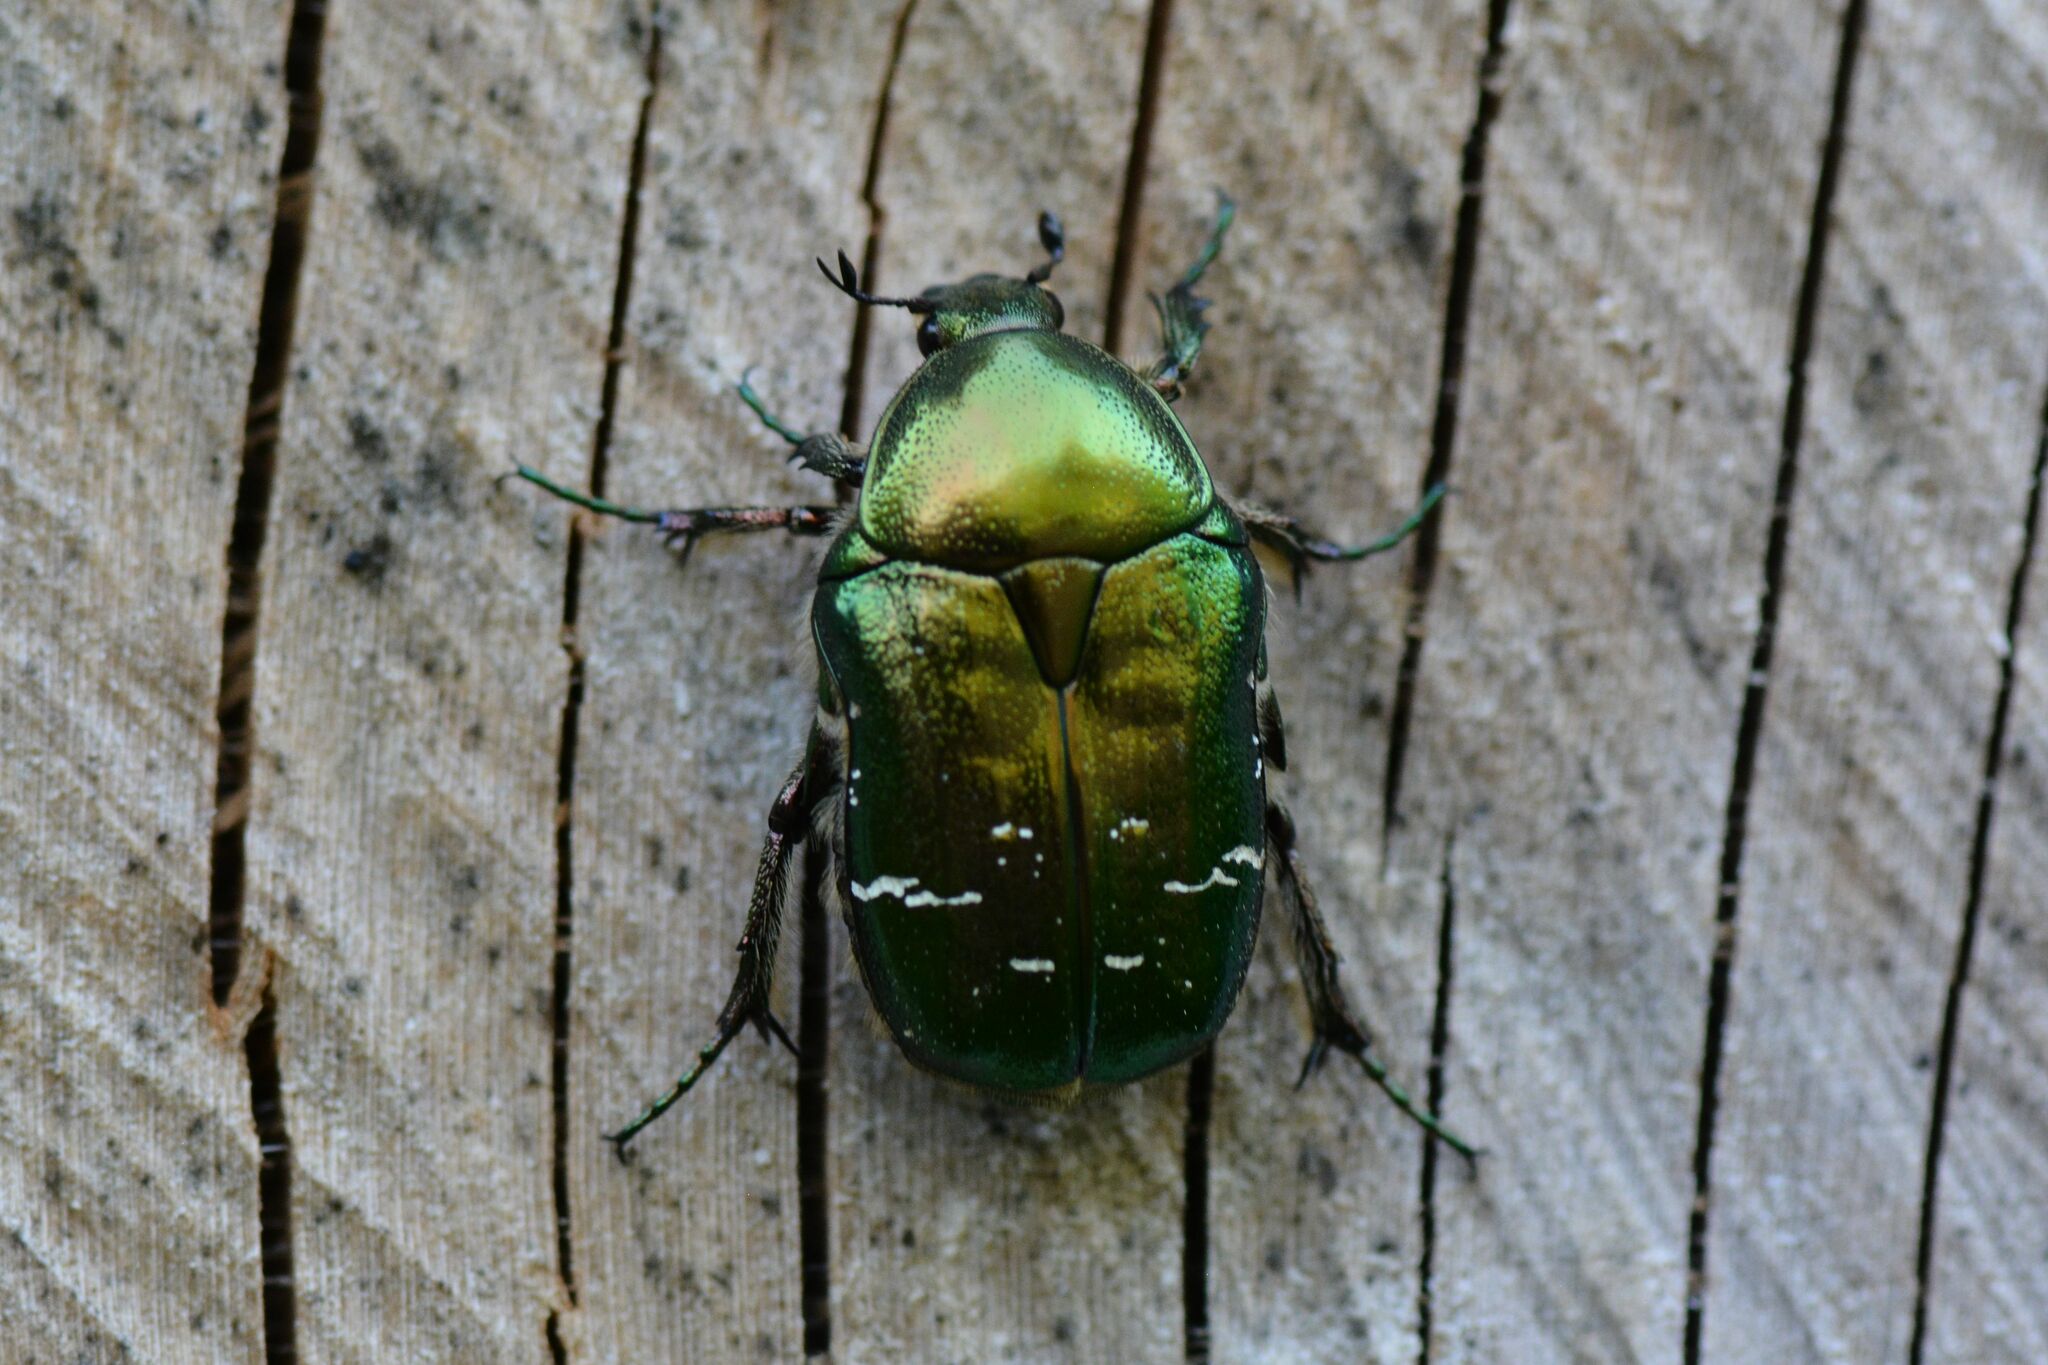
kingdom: Animalia
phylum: Arthropoda
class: Insecta
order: Coleoptera
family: Scarabaeidae
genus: Cetonia
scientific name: Cetonia aurata
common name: Rose chafer
